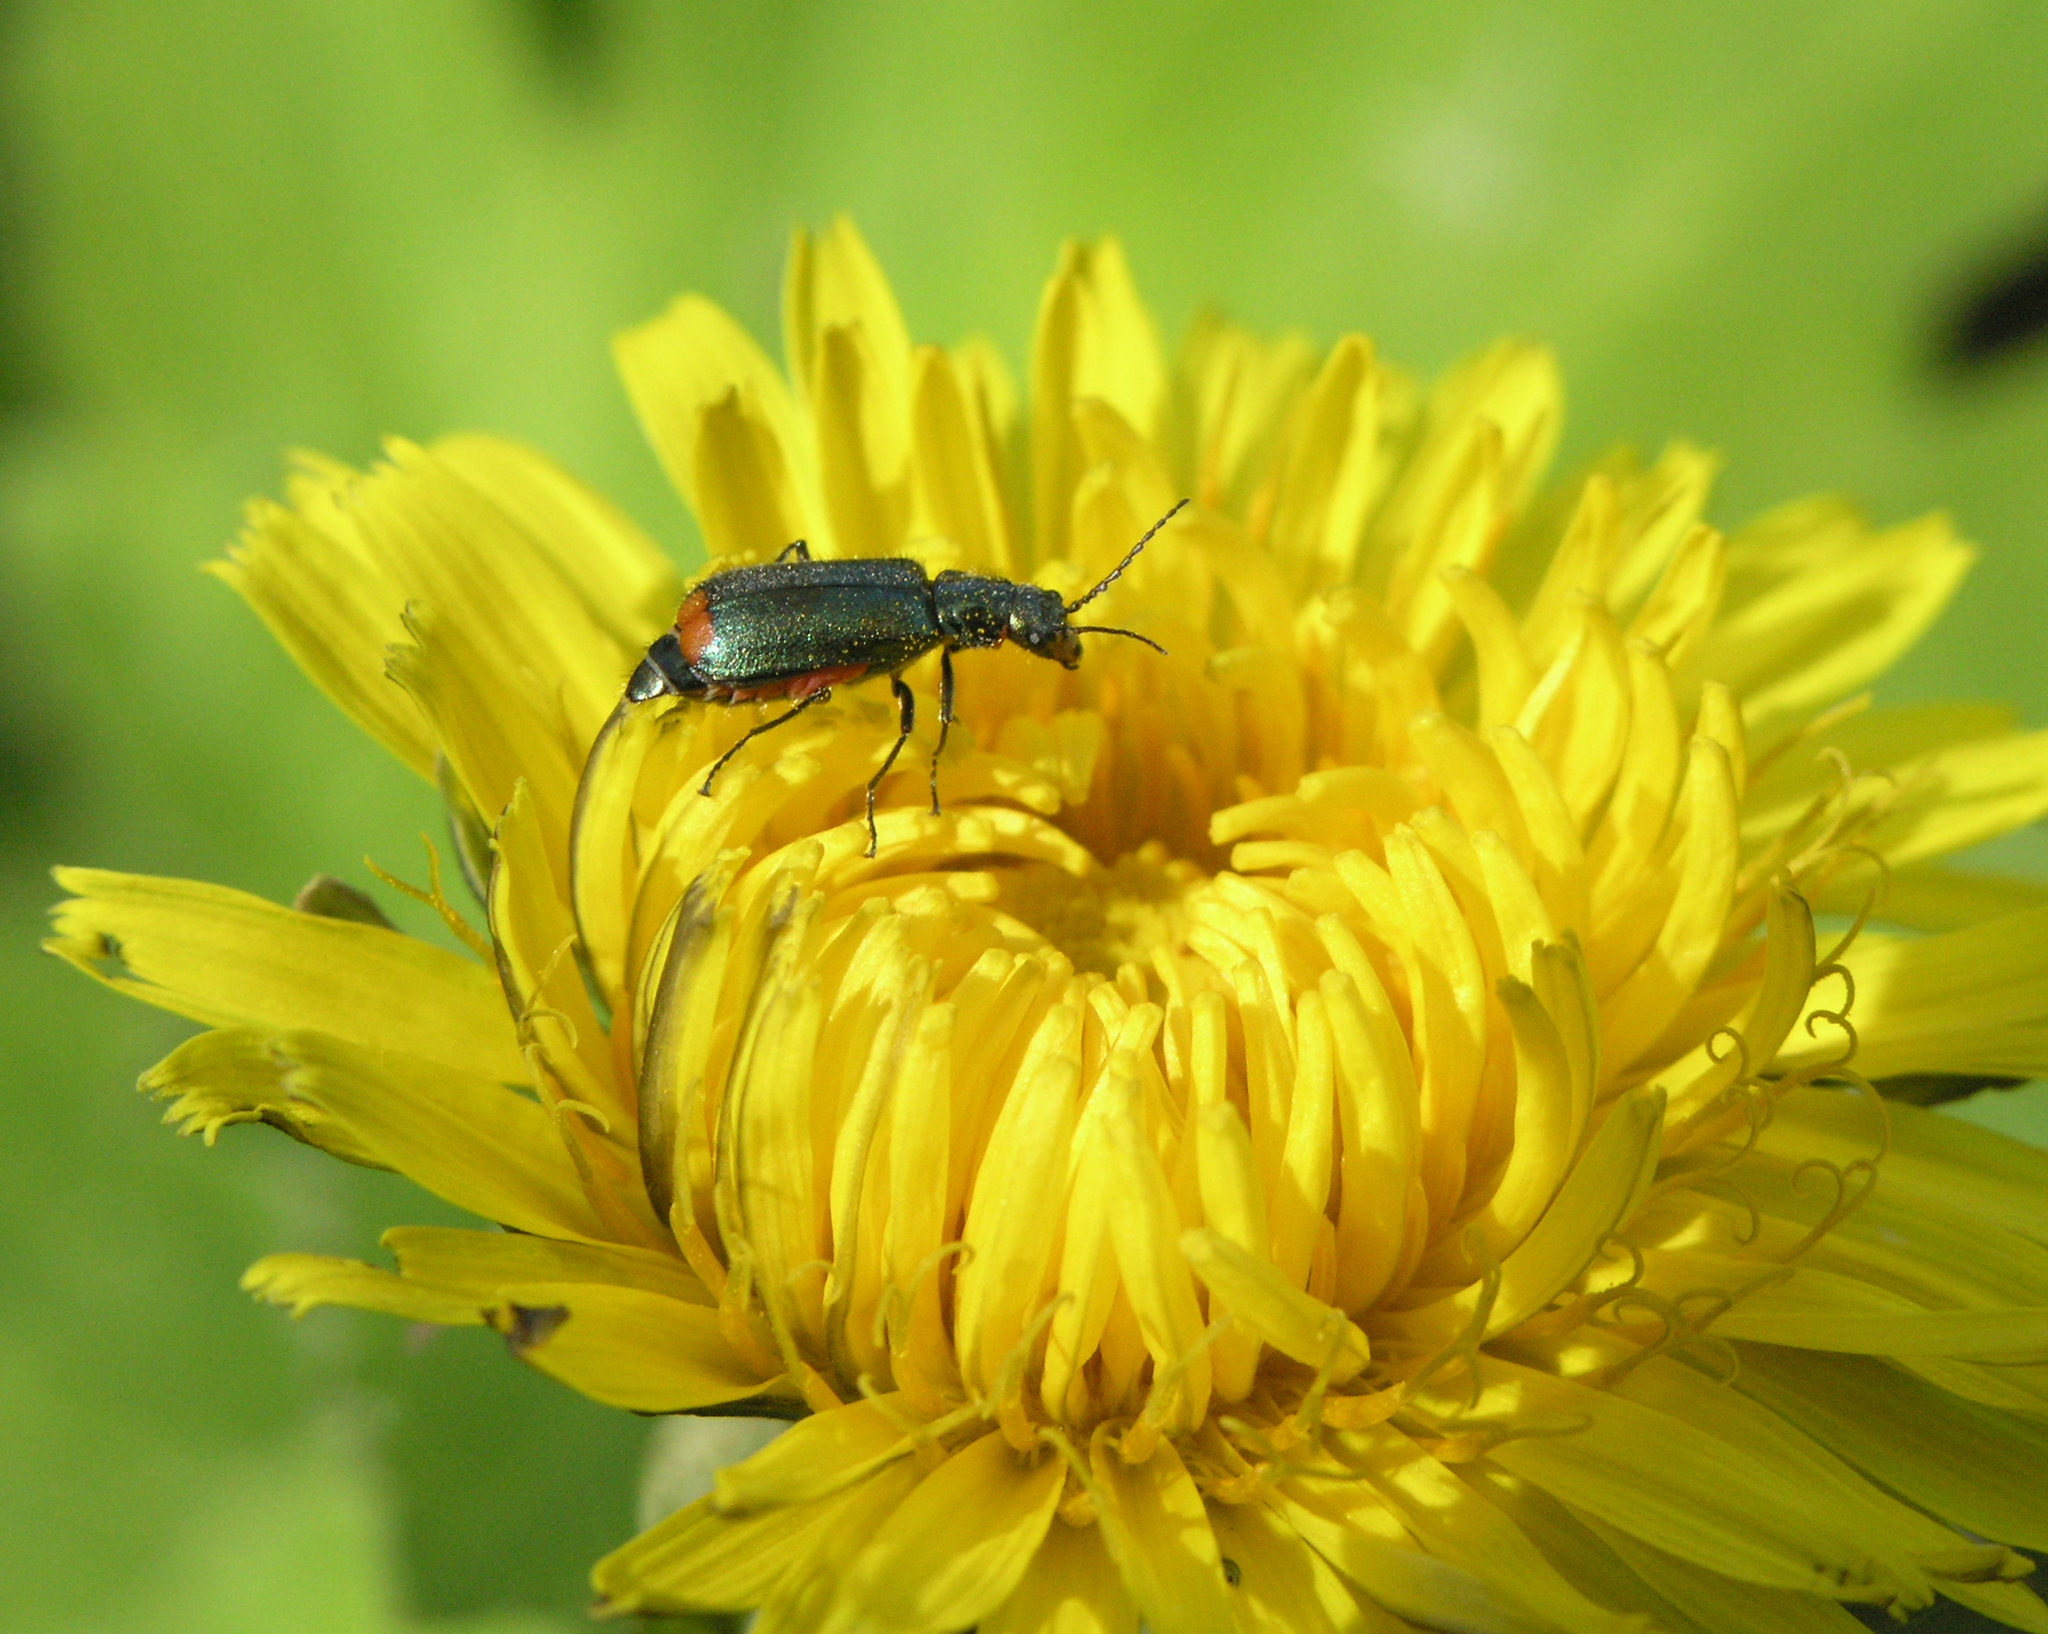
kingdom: Animalia
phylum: Arthropoda
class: Insecta
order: Coleoptera
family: Melyridae
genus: Malachius
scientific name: Malachius bipustulatus
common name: Malachite beetle
